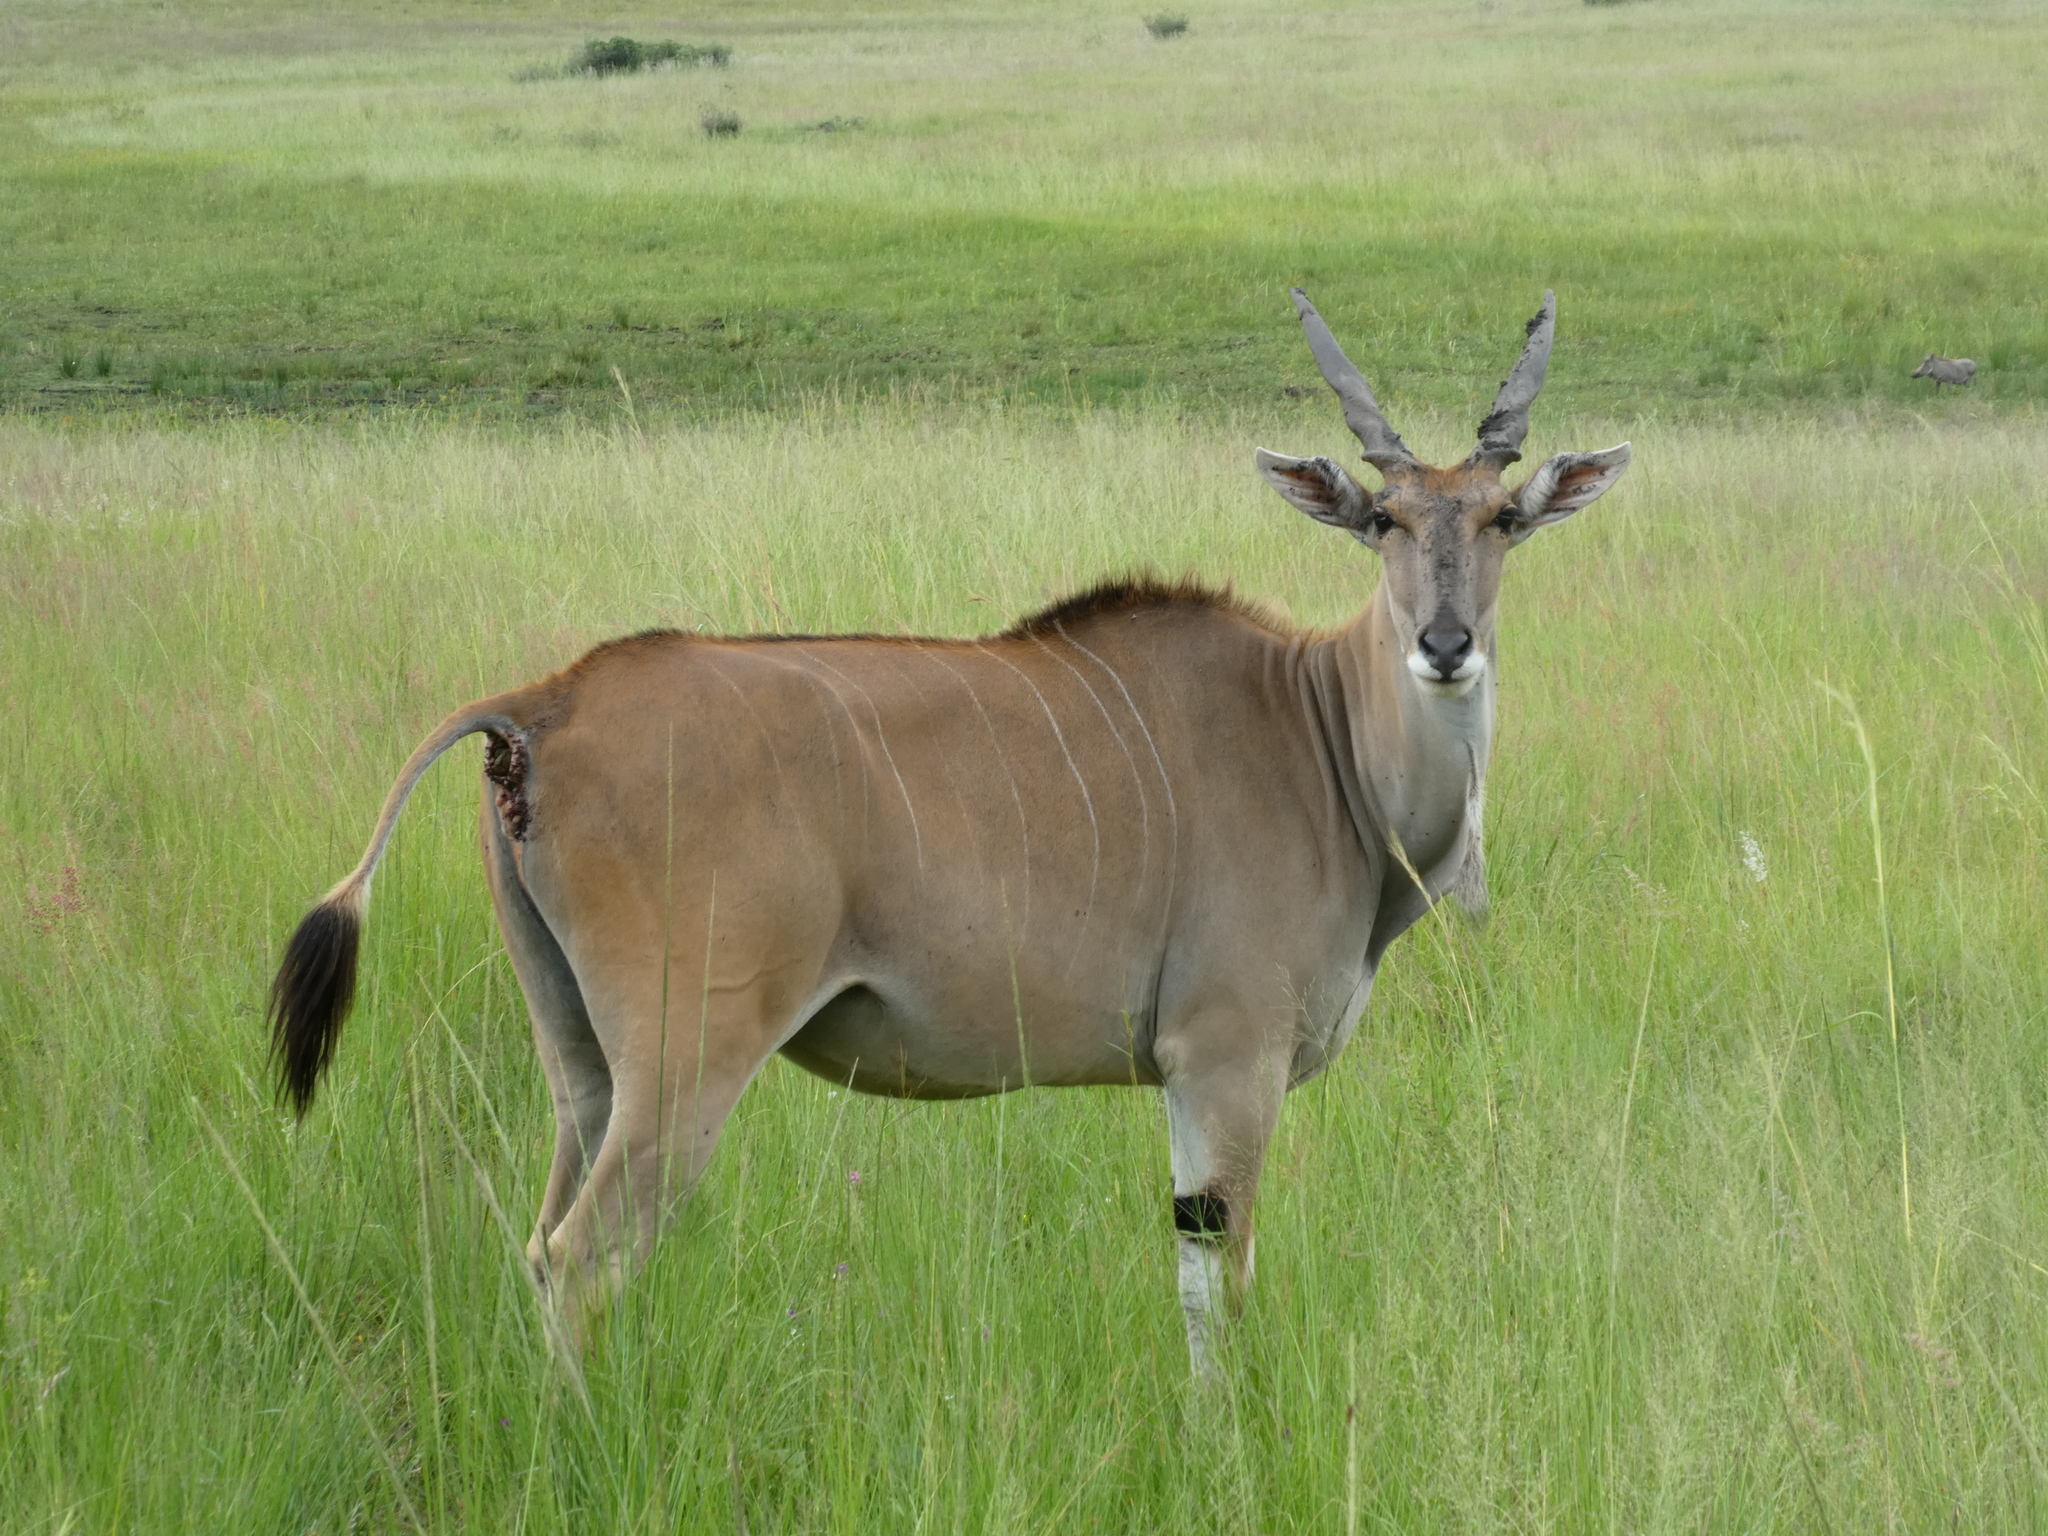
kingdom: Animalia
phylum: Chordata
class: Mammalia
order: Artiodactyla
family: Bovidae
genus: Taurotragus
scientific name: Taurotragus oryx
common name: Common eland
